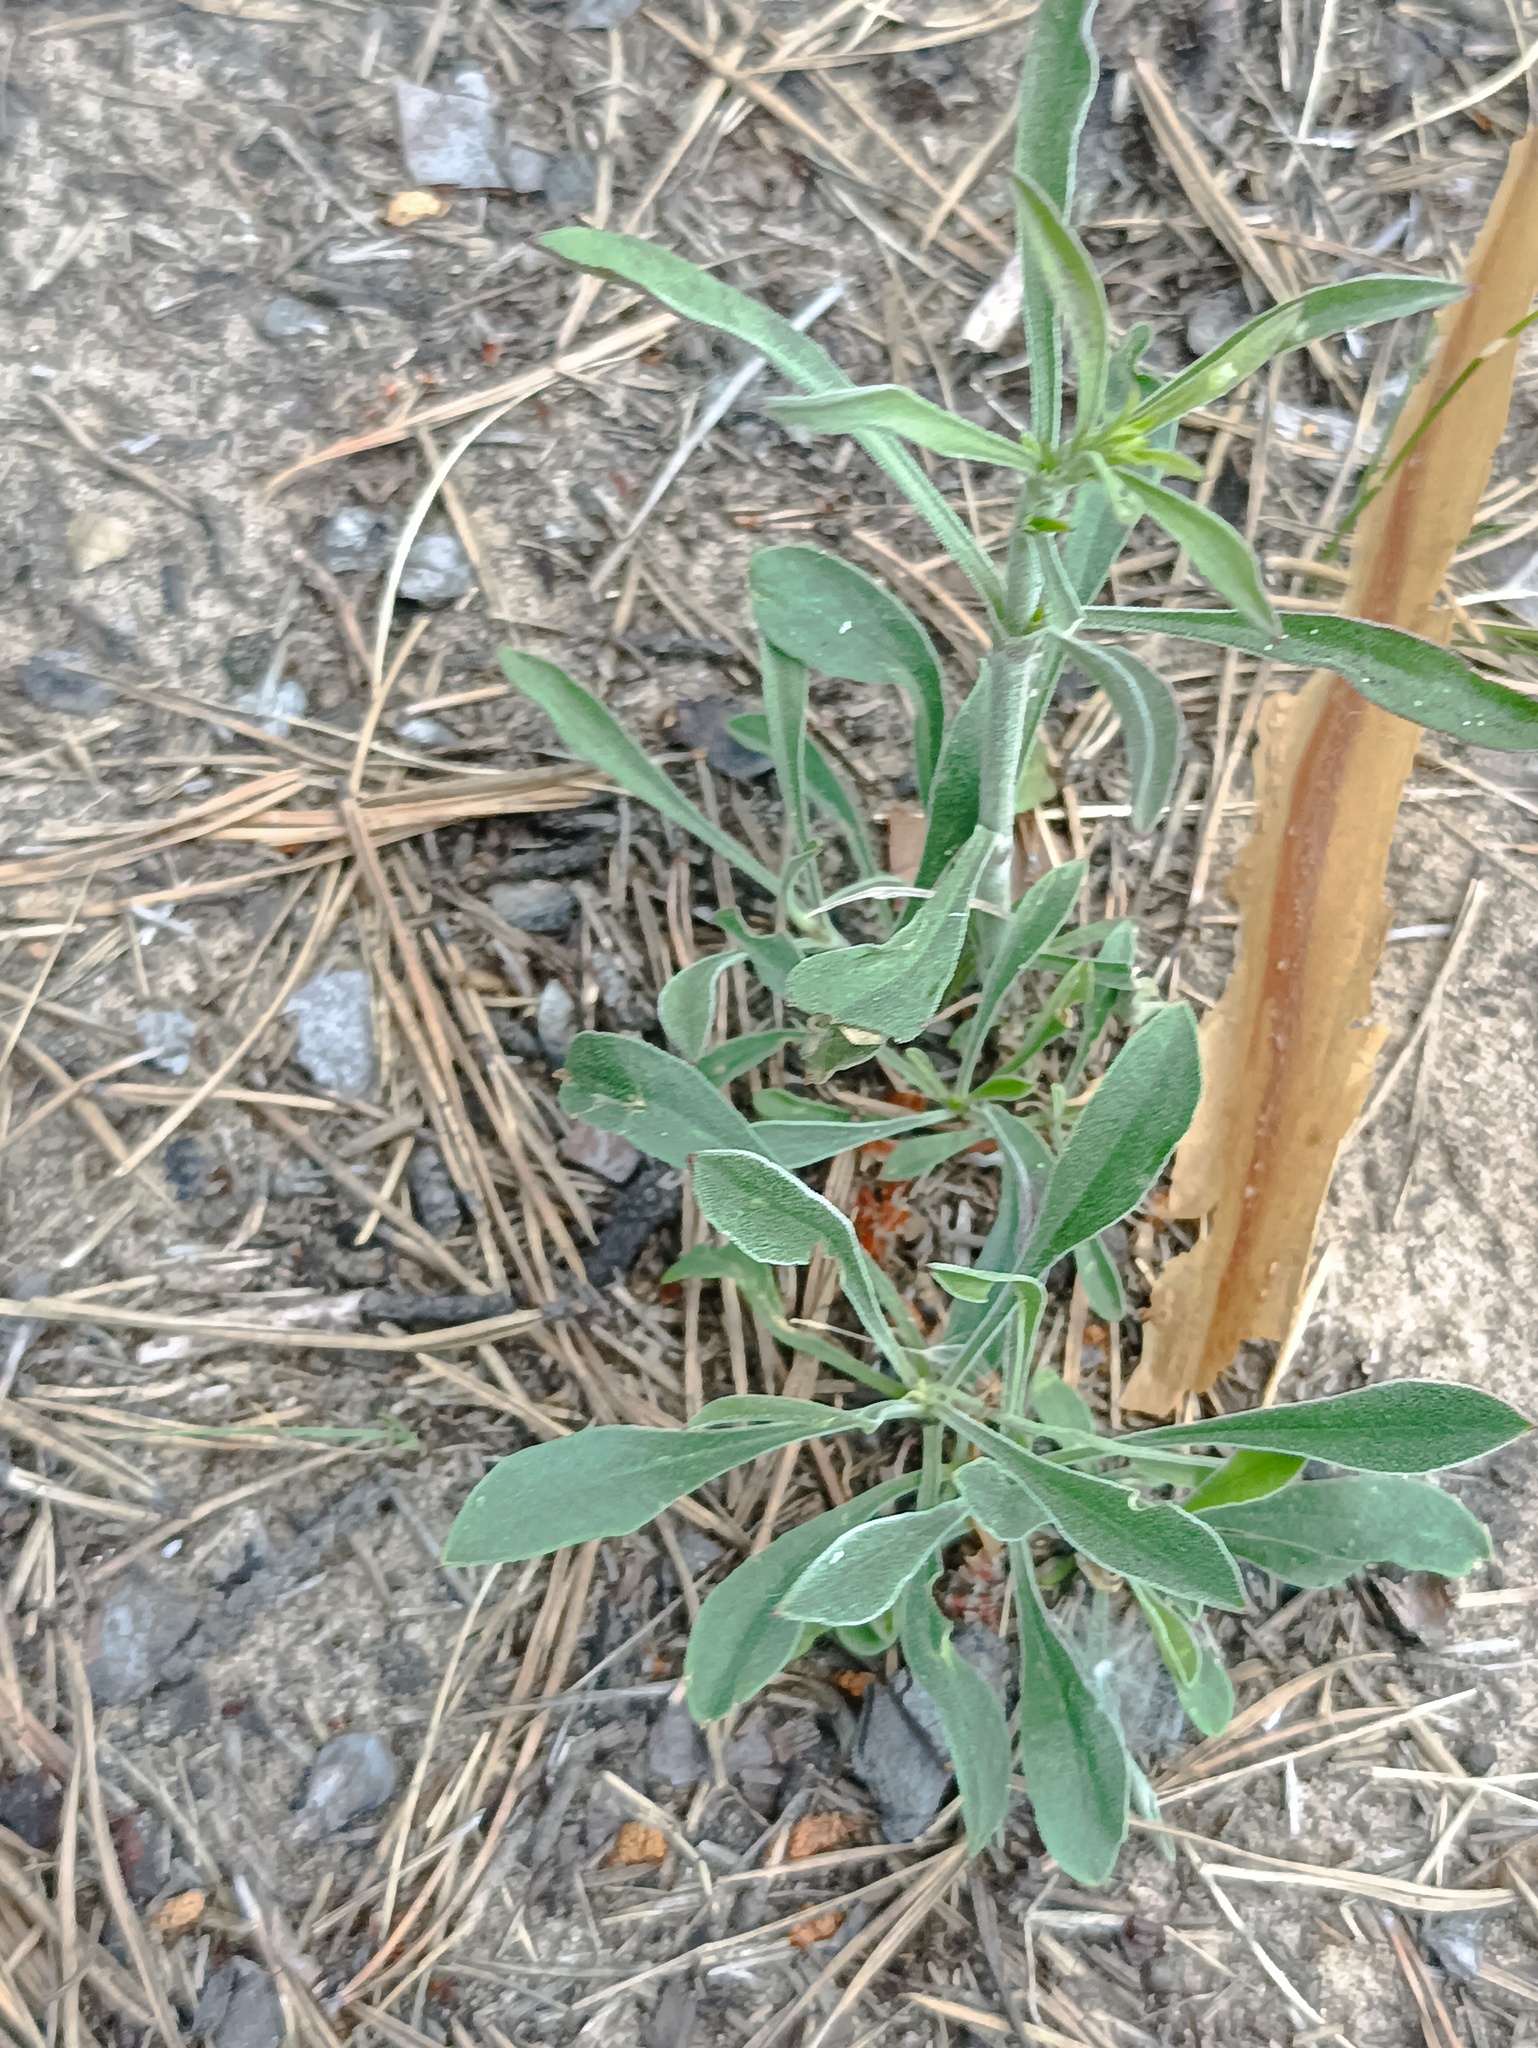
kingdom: Plantae
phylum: Tracheophyta
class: Magnoliopsida
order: Caryophyllales
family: Caryophyllaceae
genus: Silene
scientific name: Silene borysthenica
